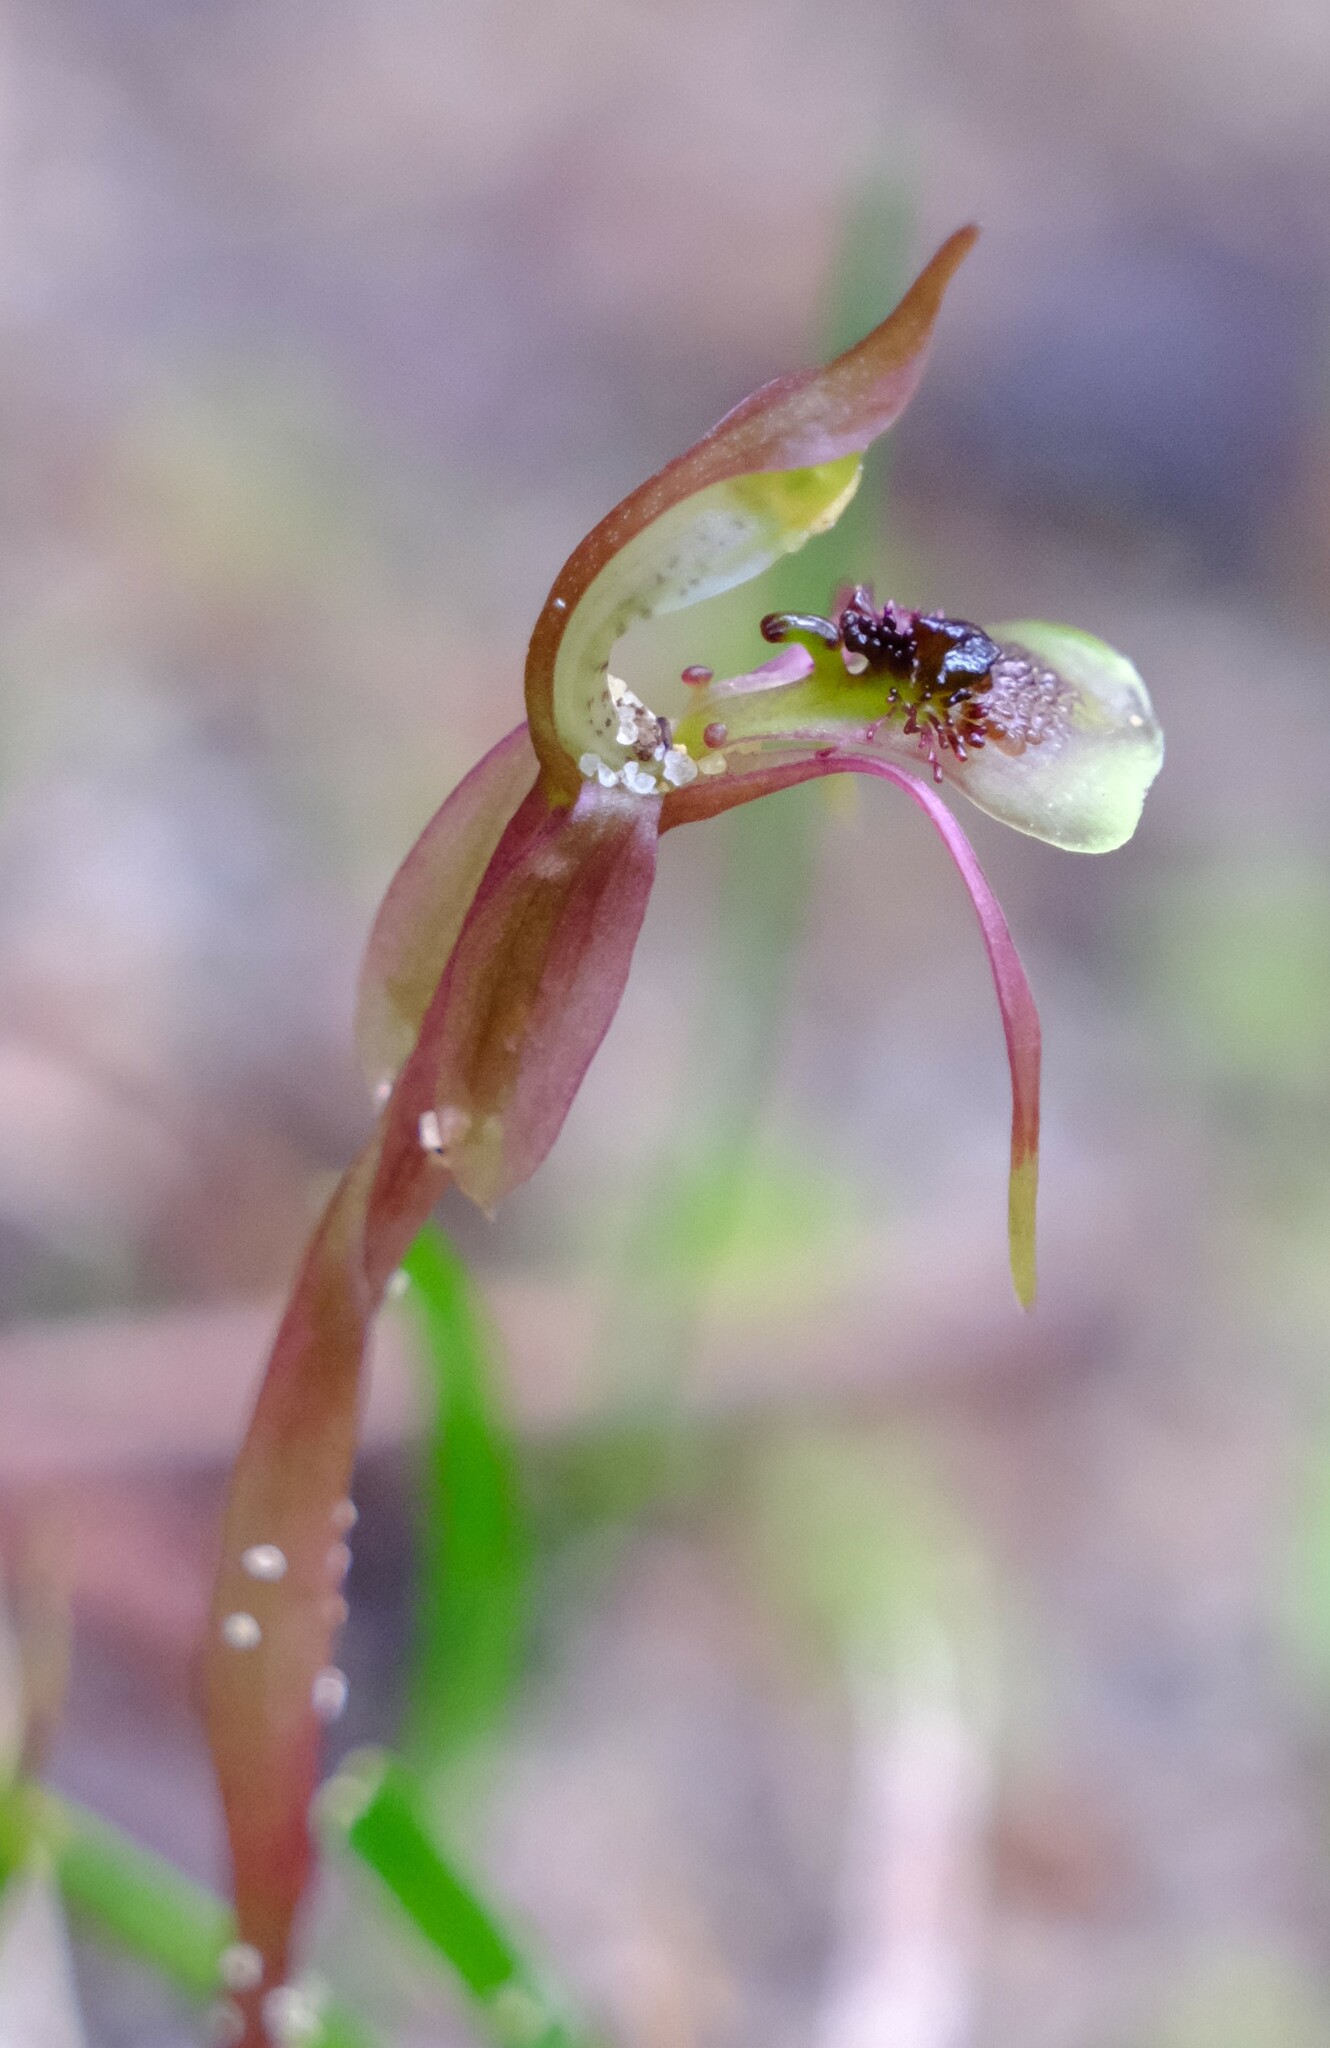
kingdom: Plantae
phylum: Tracheophyta
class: Liliopsida
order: Asparagales
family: Orchidaceae
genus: Chiloglottis
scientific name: Chiloglottis sylvestris
